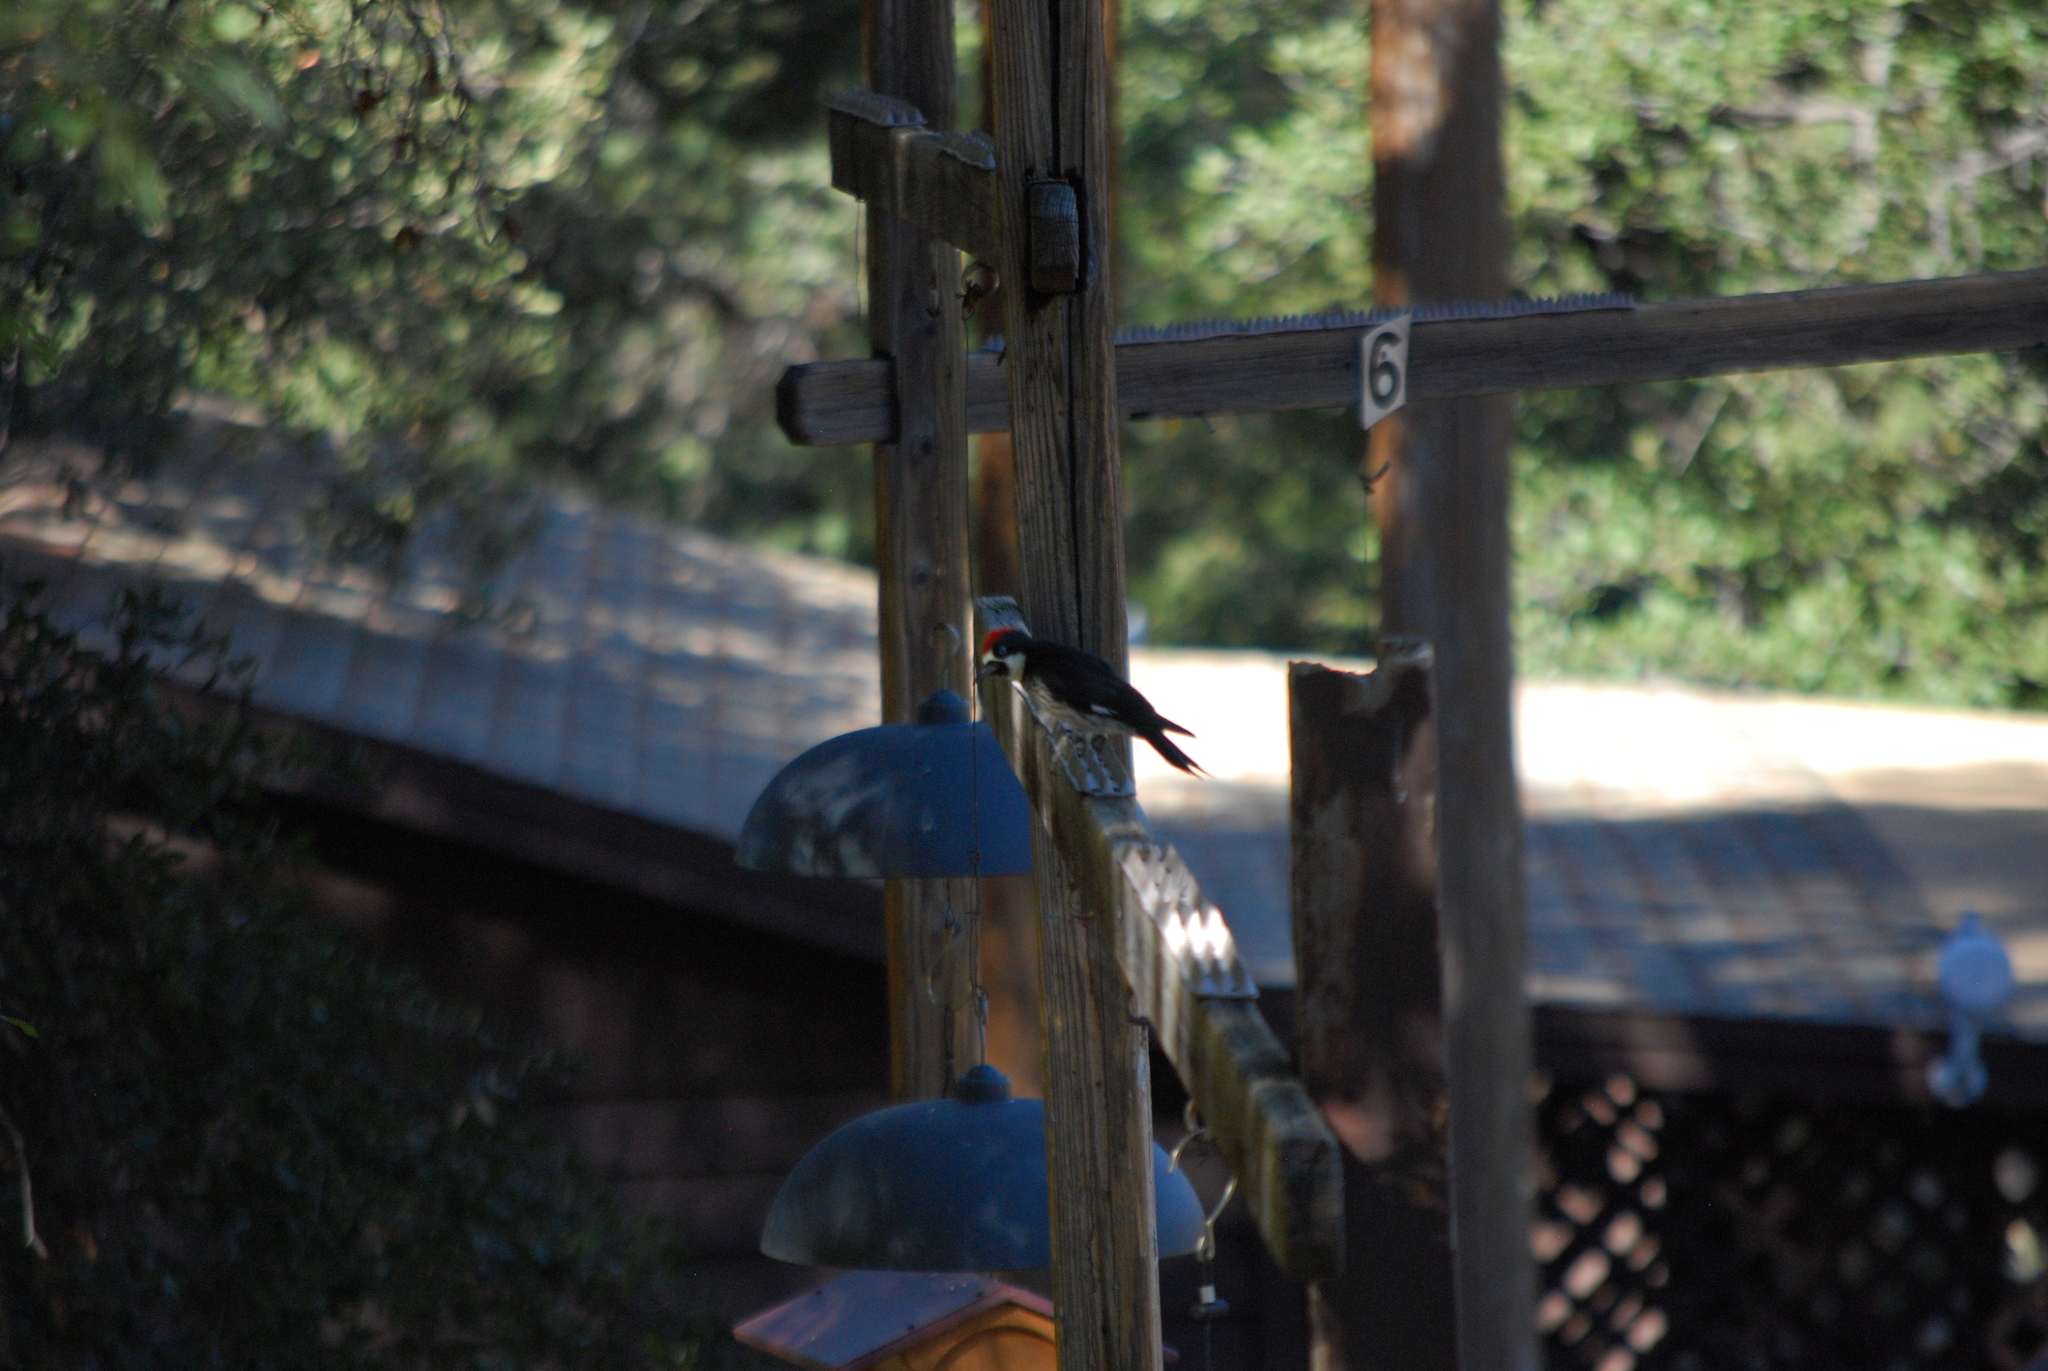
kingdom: Animalia
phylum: Chordata
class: Aves
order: Piciformes
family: Picidae
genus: Melanerpes
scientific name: Melanerpes formicivorus
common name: Acorn woodpecker
